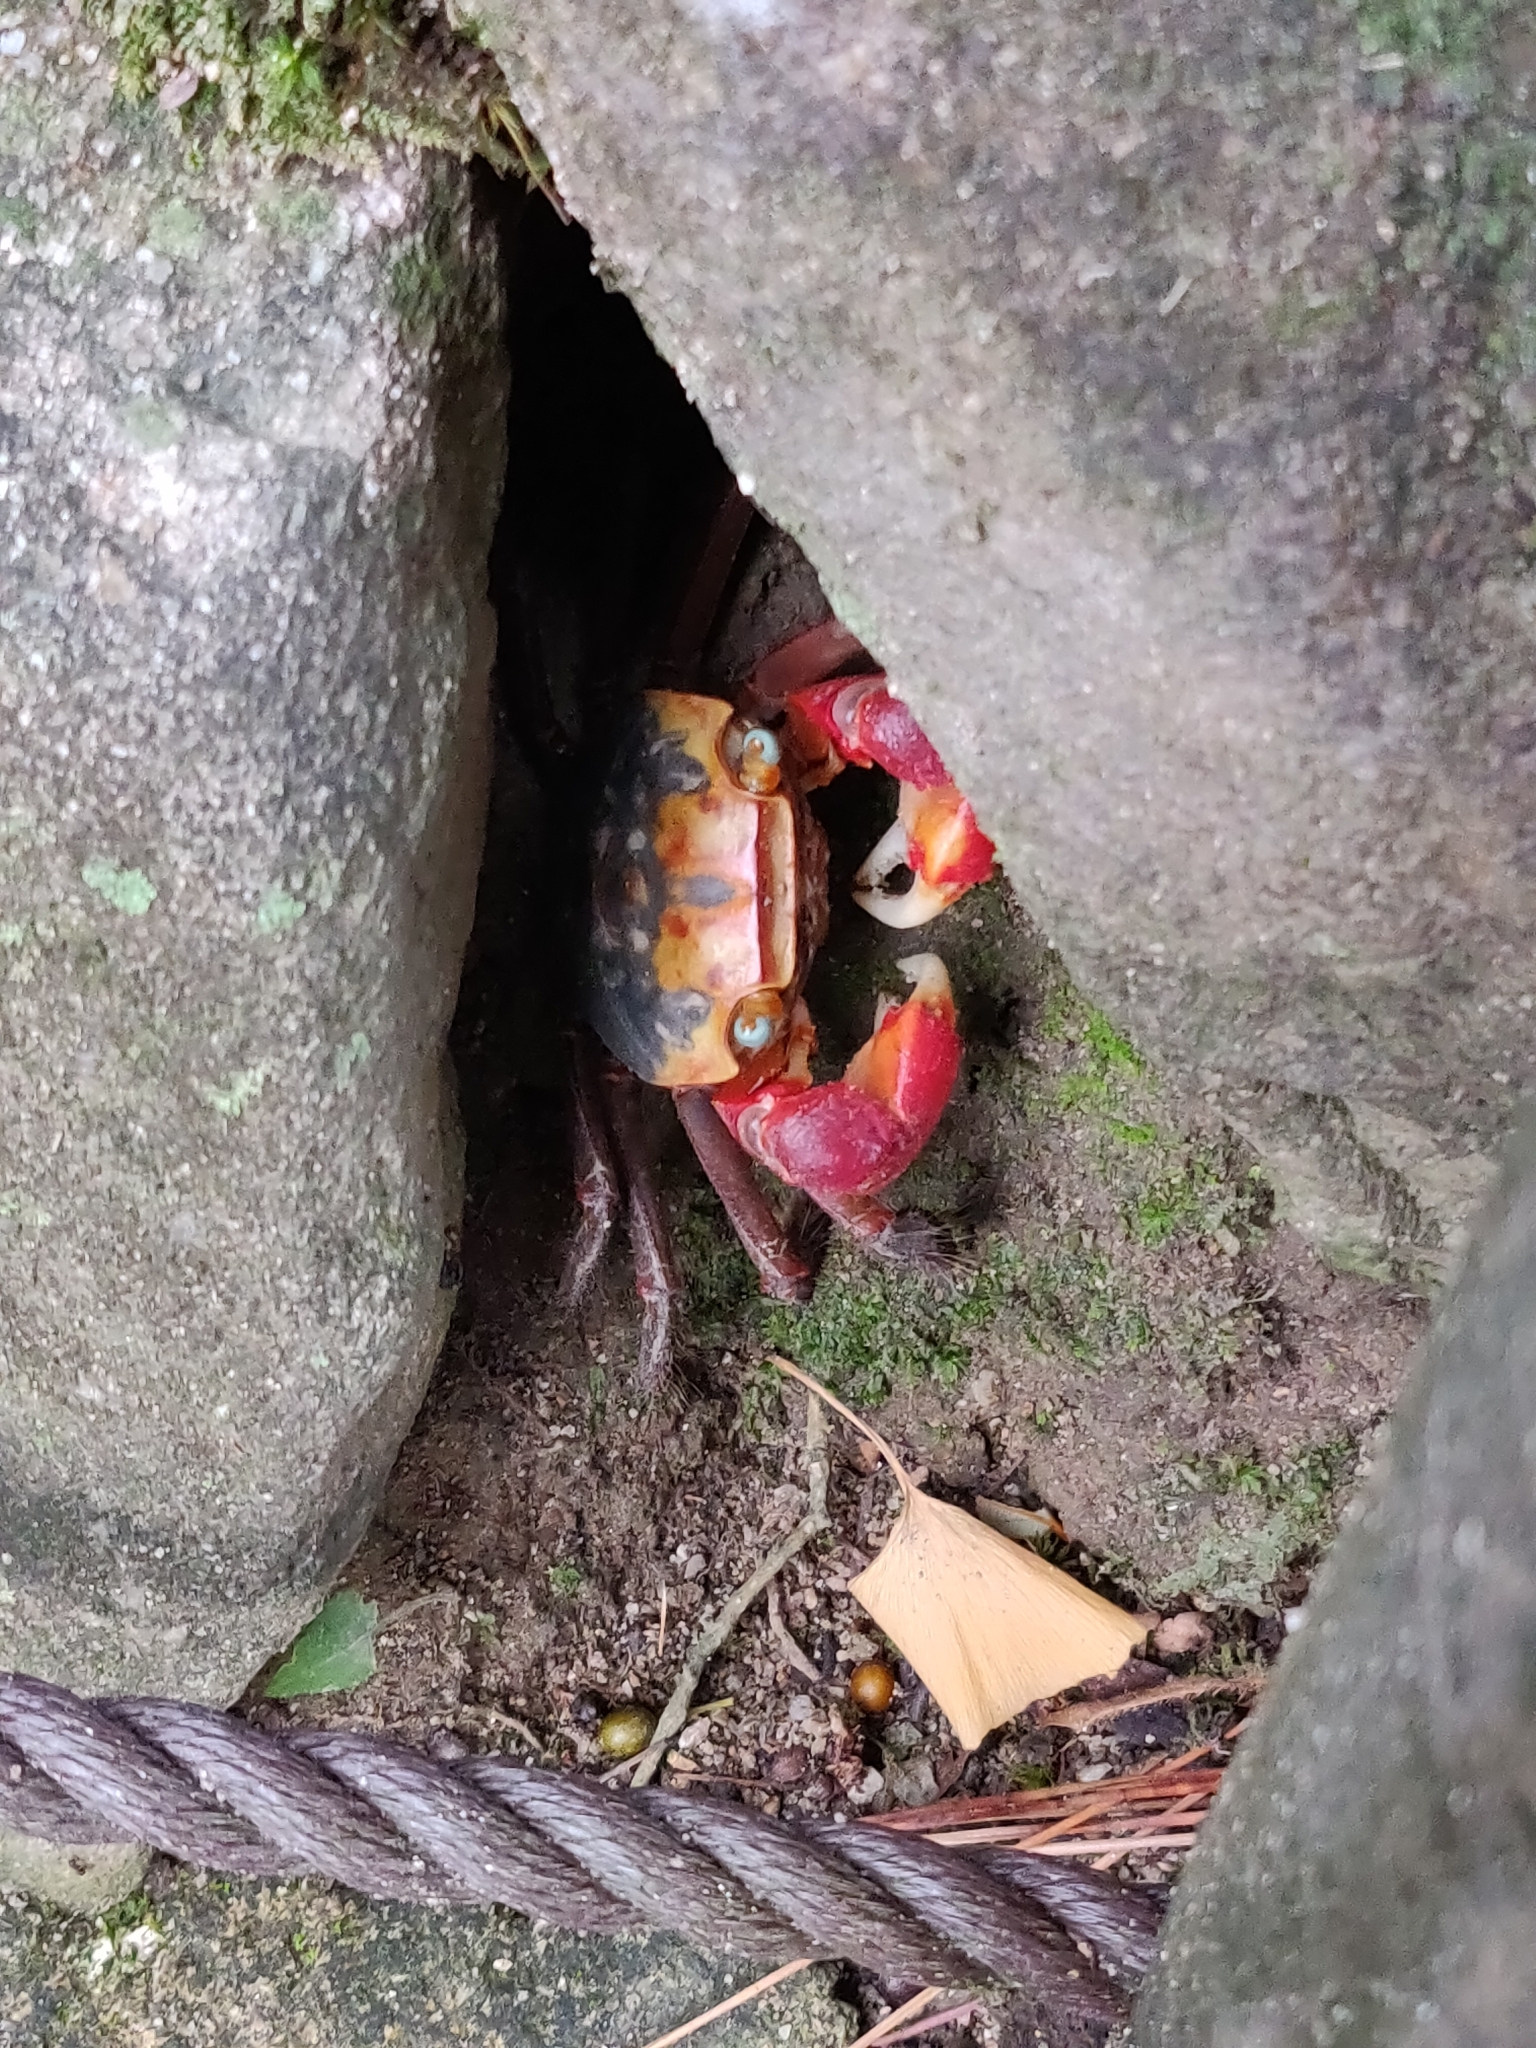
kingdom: Animalia
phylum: Arthropoda
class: Malacostraca
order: Decapoda
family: Sesarmidae
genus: Chiromantes
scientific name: Chiromantes haematocheir
